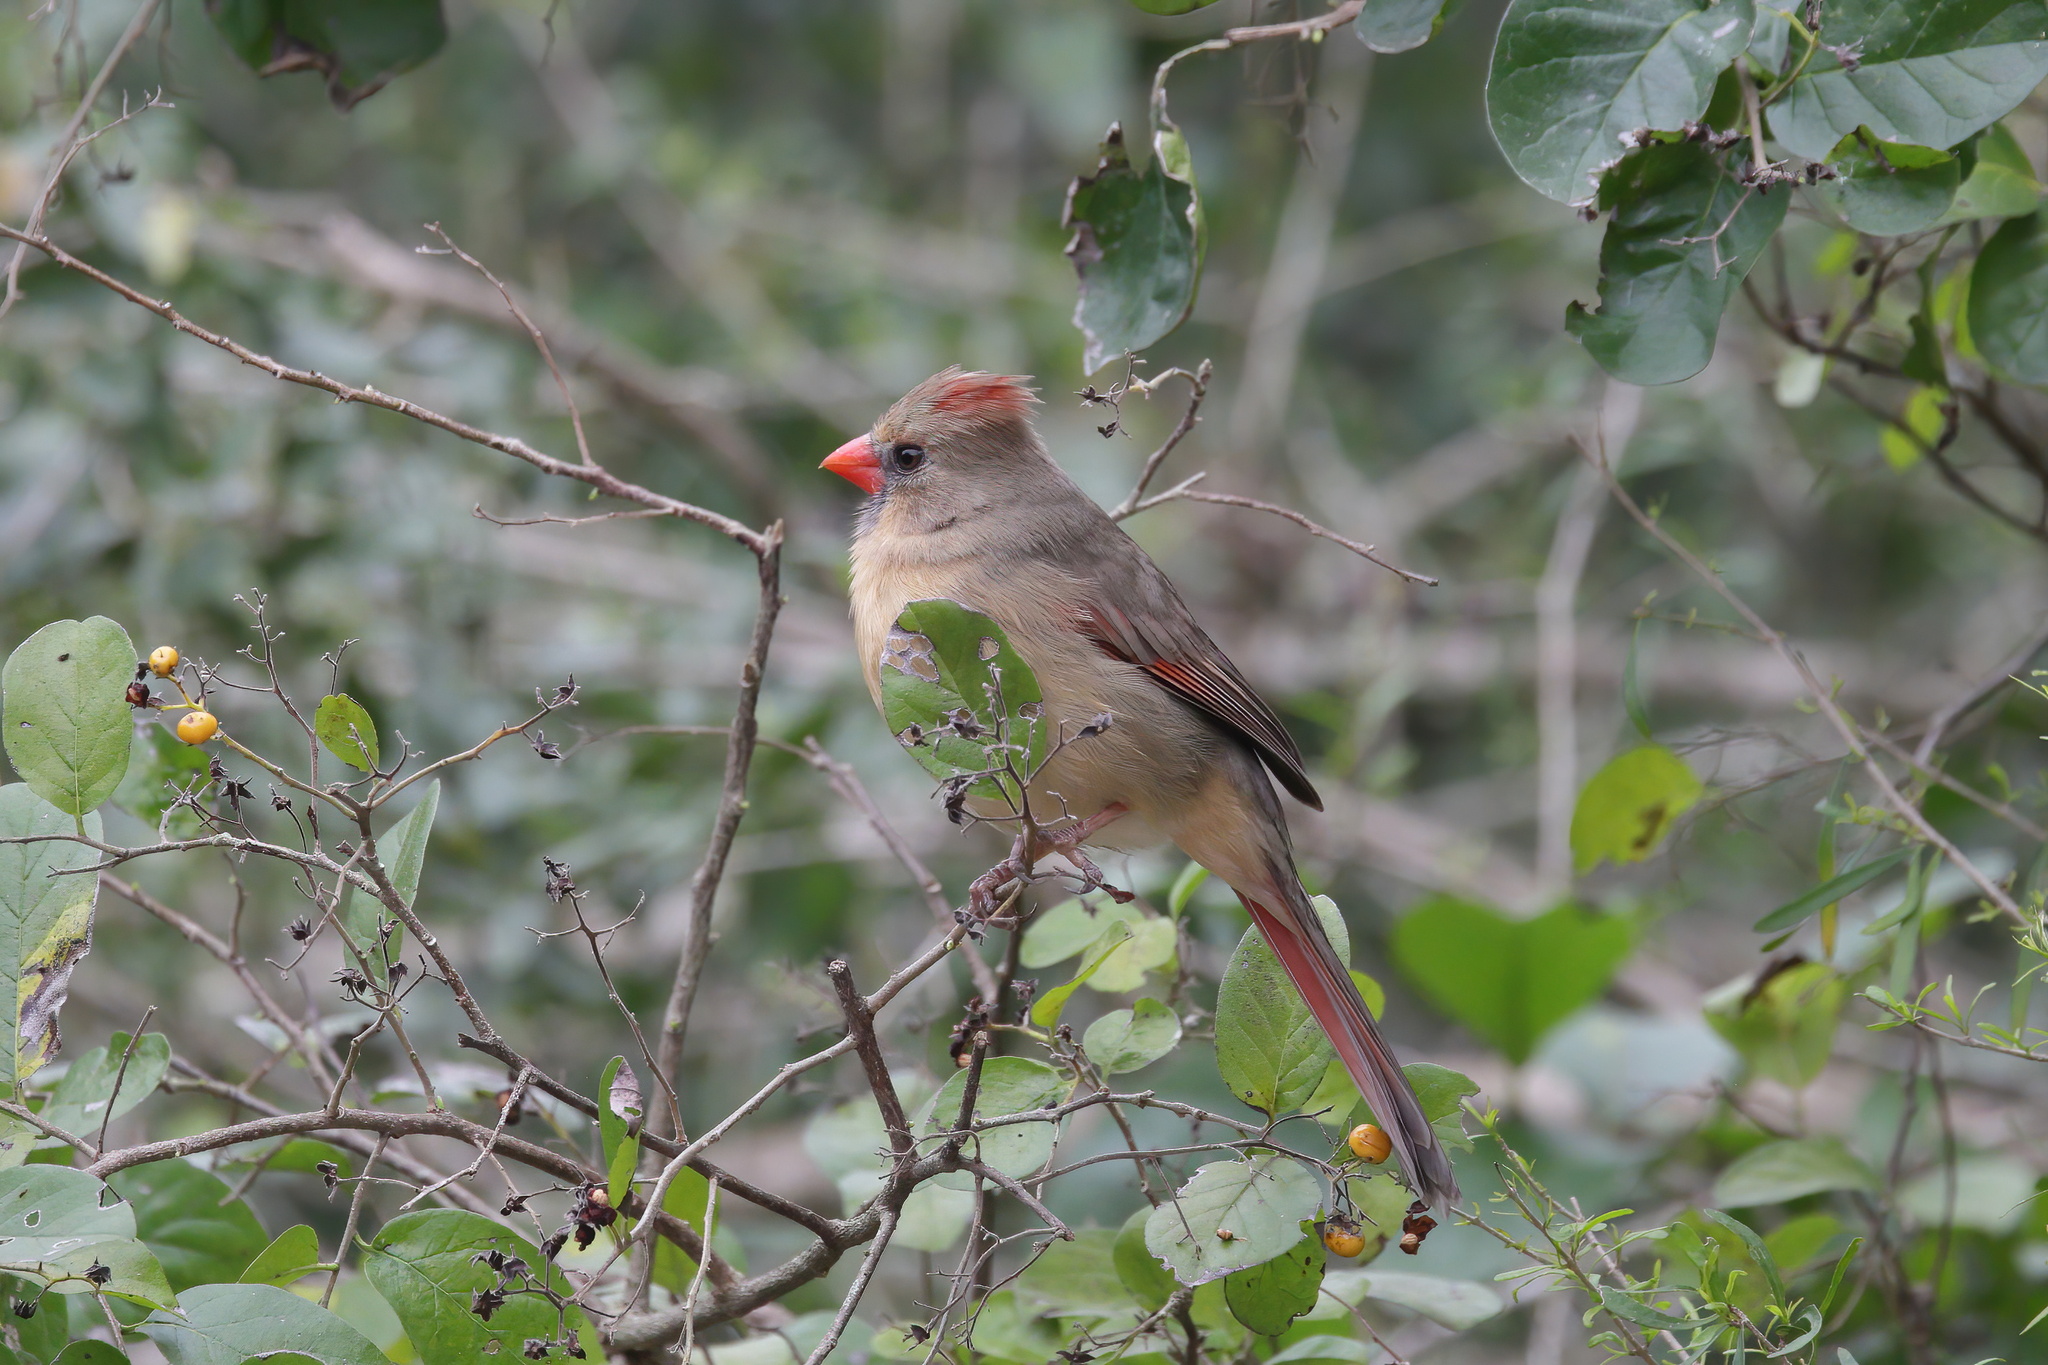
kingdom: Animalia
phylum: Chordata
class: Aves
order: Passeriformes
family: Cardinalidae
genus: Cardinalis
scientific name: Cardinalis cardinalis
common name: Northern cardinal
